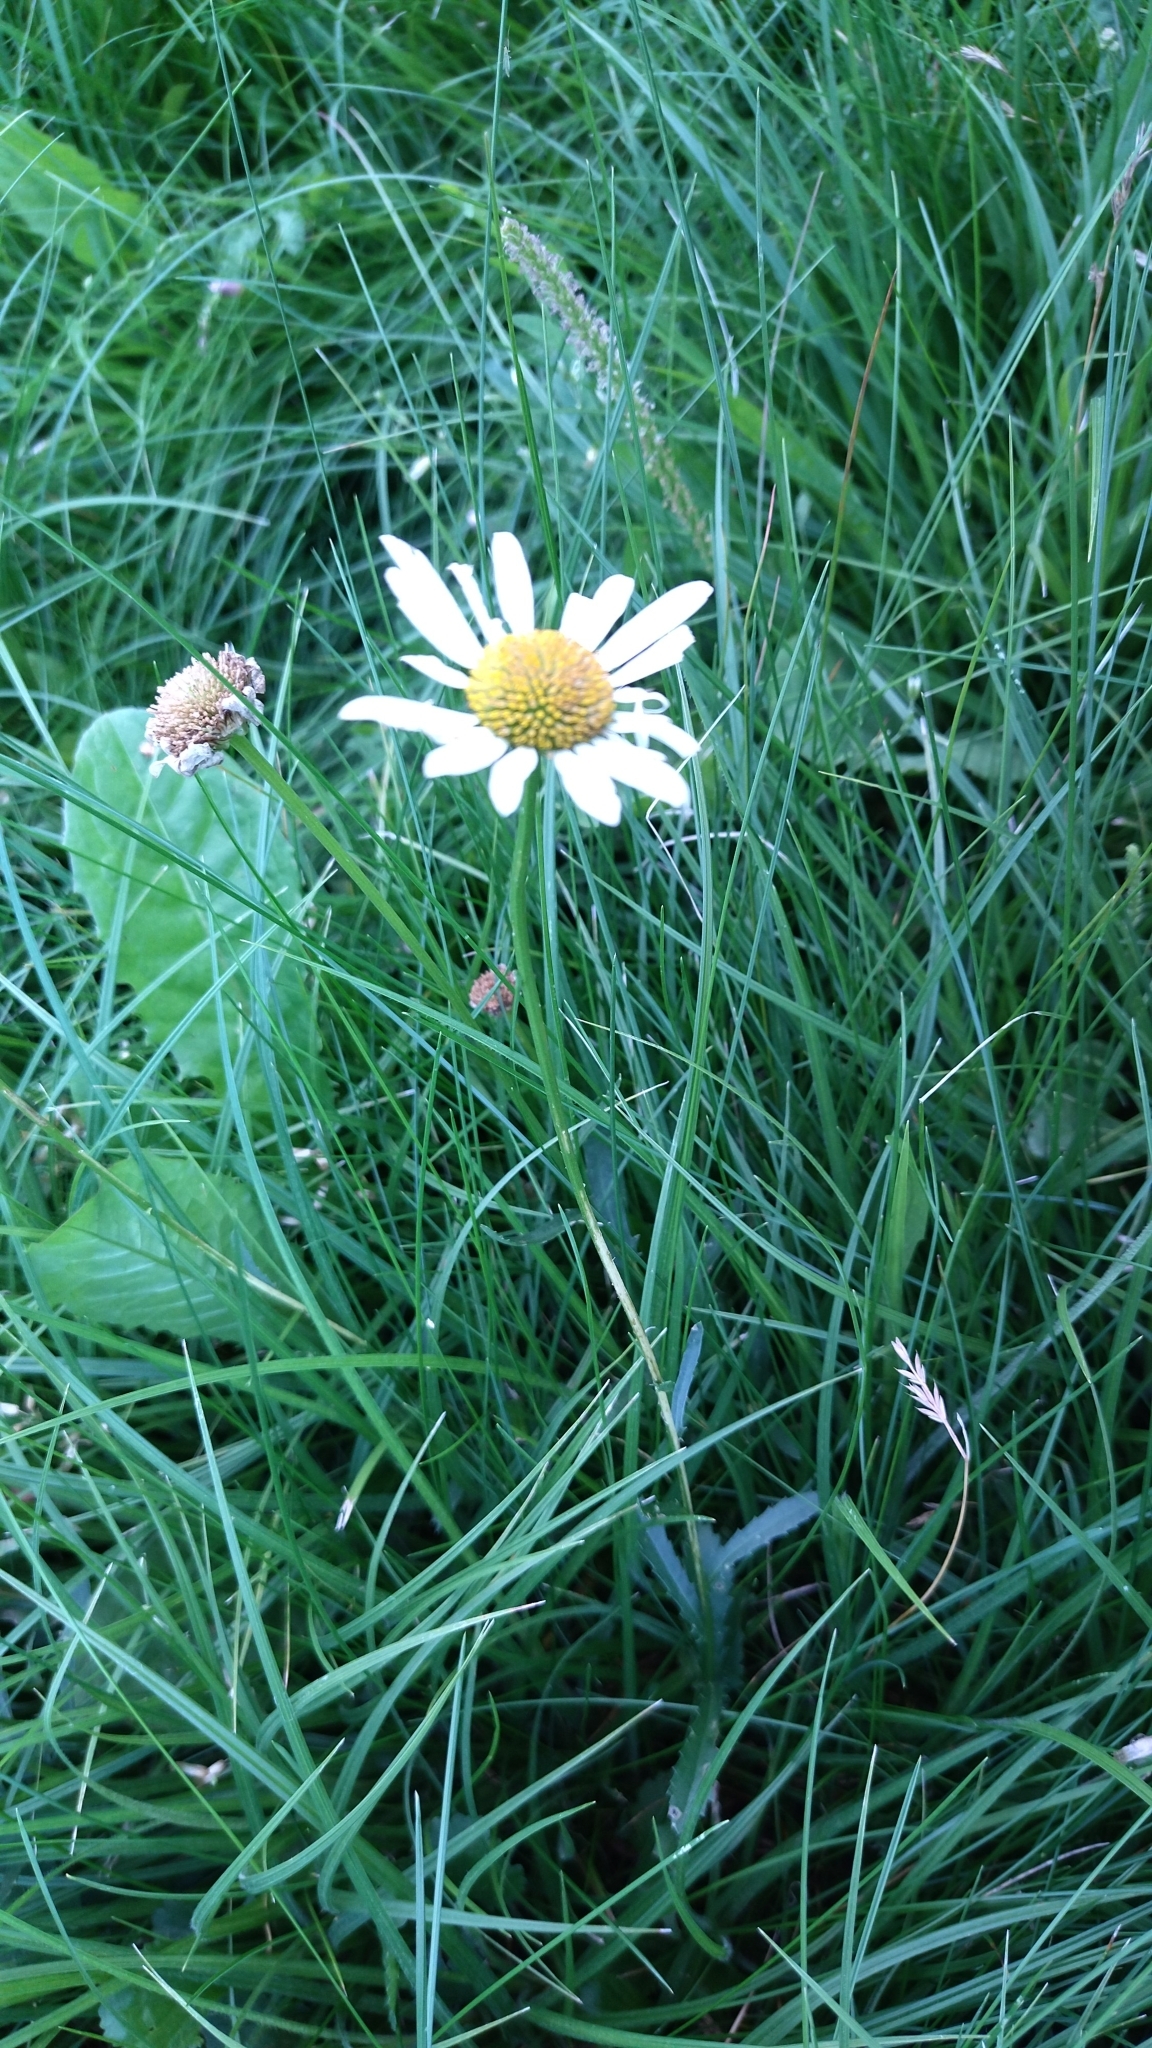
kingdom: Plantae
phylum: Tracheophyta
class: Magnoliopsida
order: Asterales
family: Asteraceae
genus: Leucanthemum
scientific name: Leucanthemum vulgare
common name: Oxeye daisy
